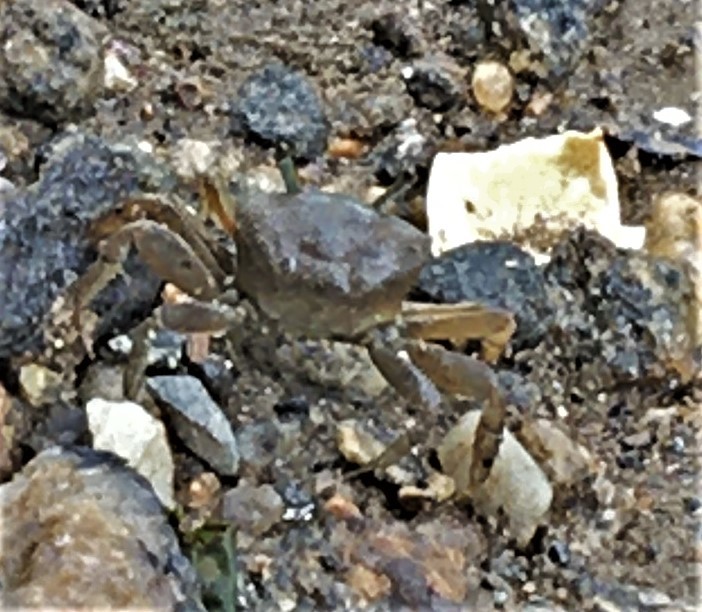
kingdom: Animalia
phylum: Arthropoda
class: Malacostraca
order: Decapoda
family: Ocypodidae
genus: Minuca
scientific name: Minuca pugnax
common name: Mud fiddler crab
